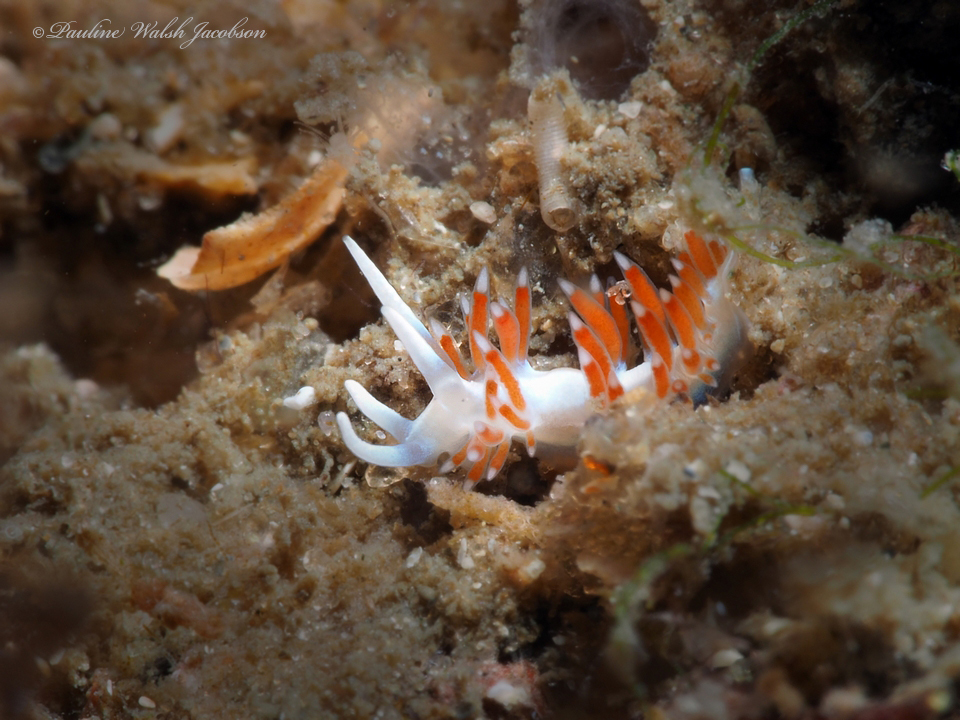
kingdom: Animalia
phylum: Mollusca
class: Gastropoda
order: Nudibranchia
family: Flabellinidae
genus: Flabellina
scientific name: Flabellina dushia
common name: Dushia flabellina
